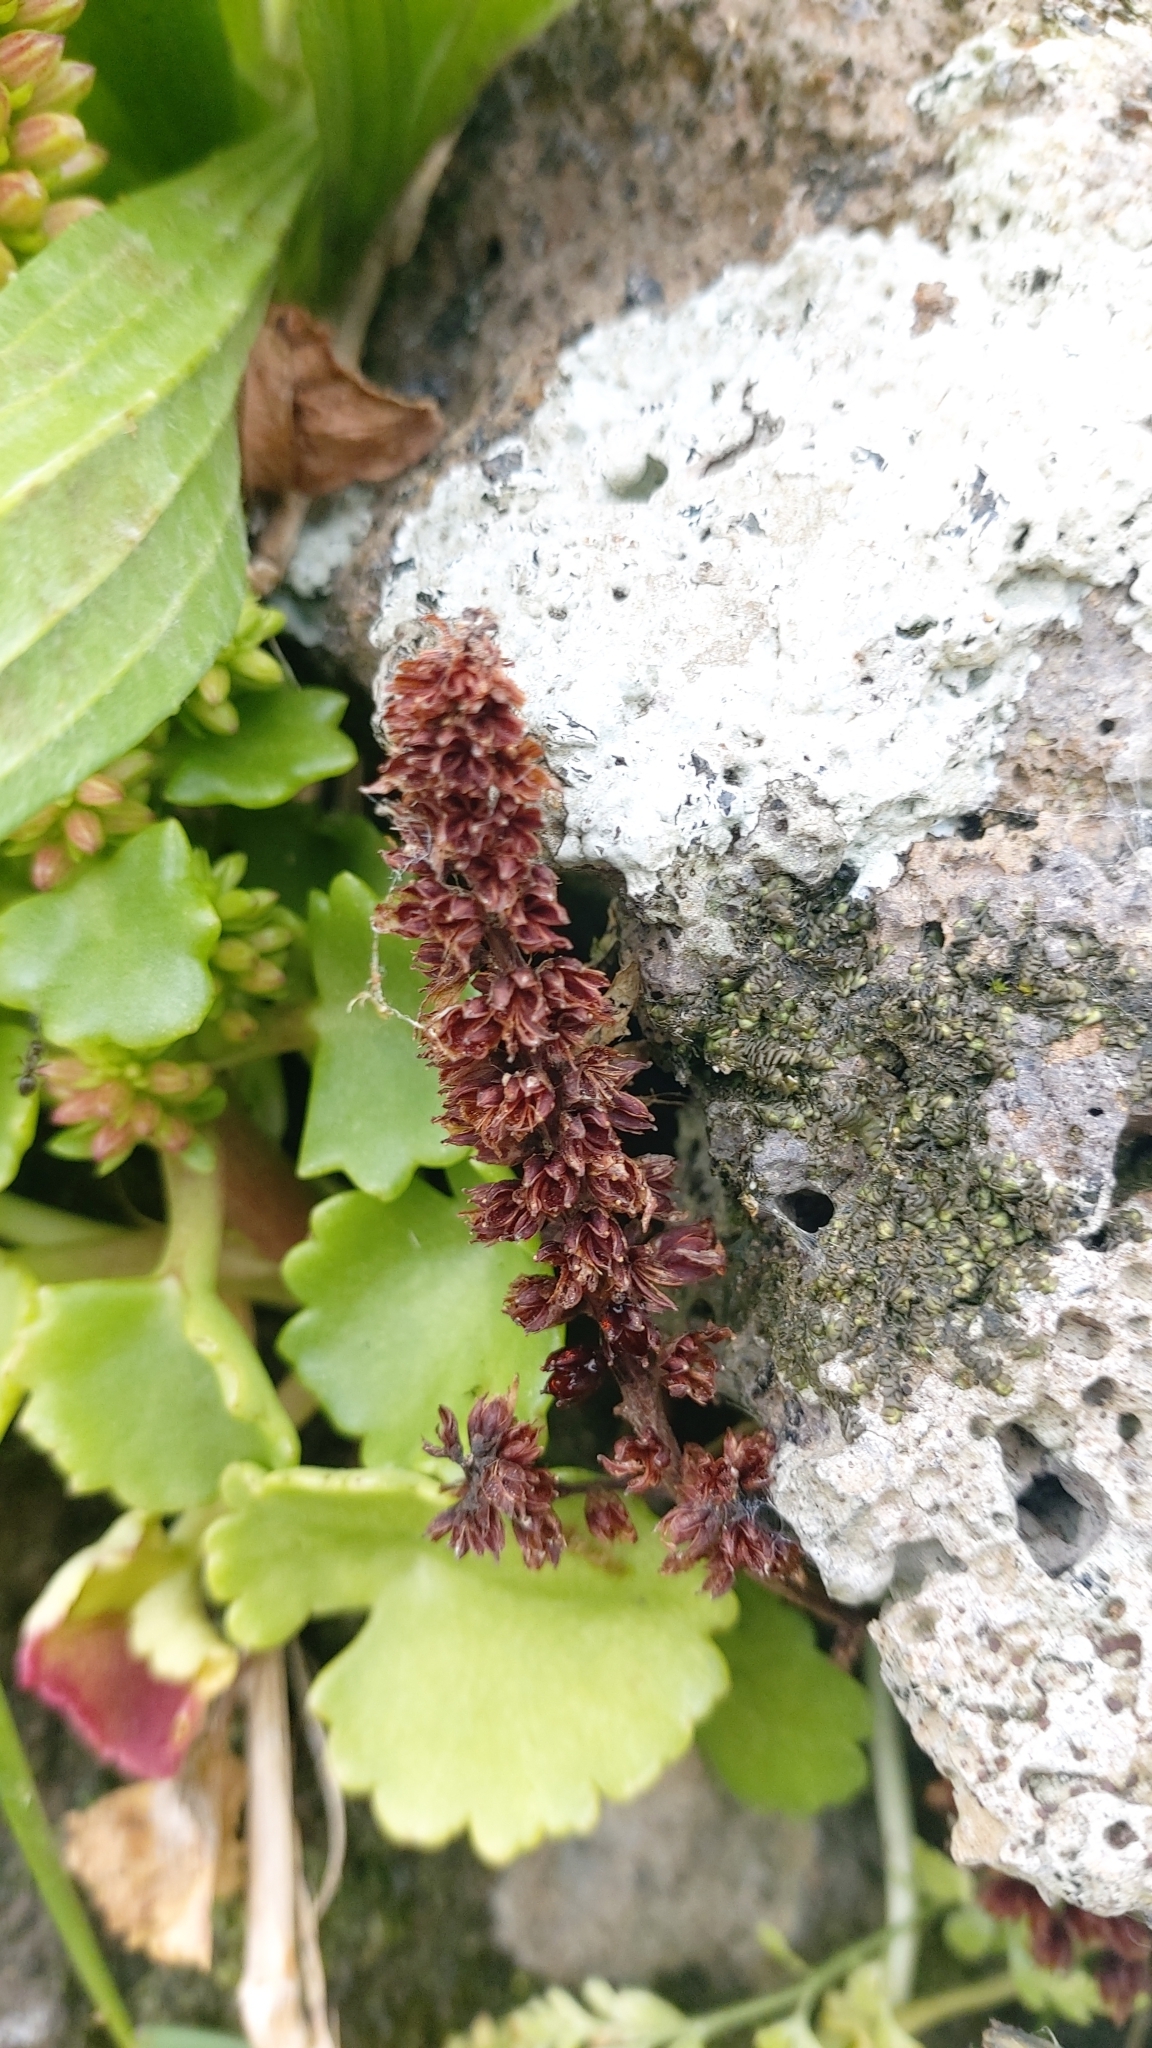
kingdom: Plantae
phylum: Tracheophyta
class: Magnoliopsida
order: Saxifragales
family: Crassulaceae
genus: Umbilicus
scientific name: Umbilicus horizontalis
